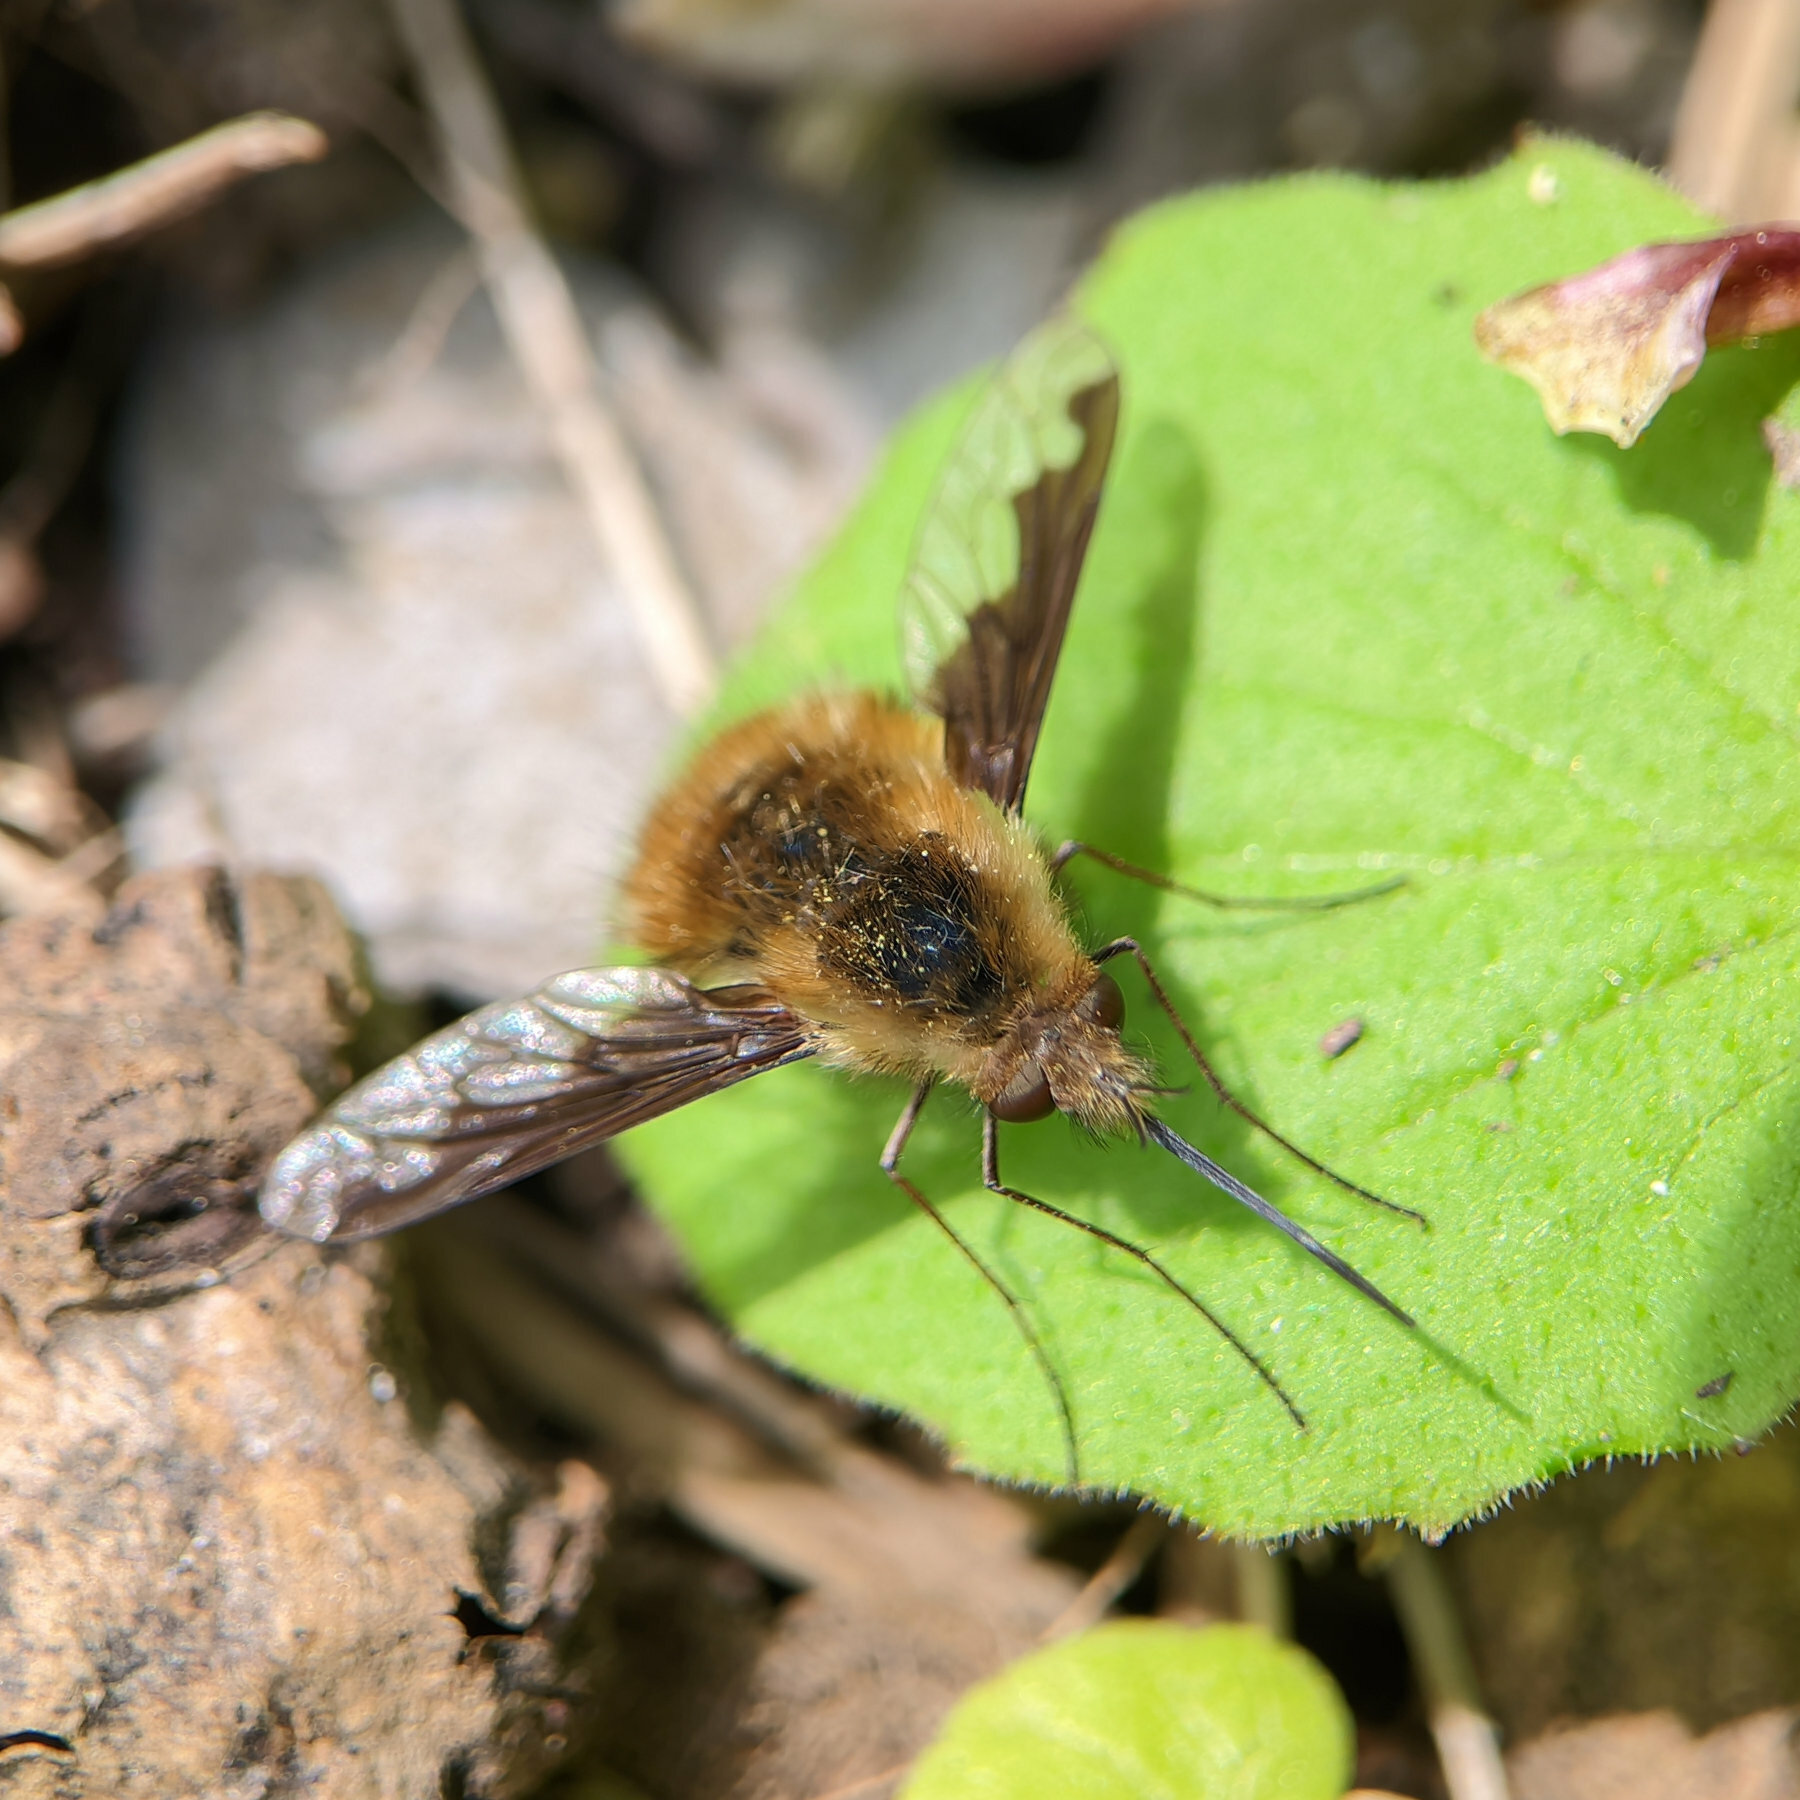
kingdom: Animalia
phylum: Arthropoda
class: Insecta
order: Diptera
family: Bombyliidae
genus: Bombylius
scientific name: Bombylius major
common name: Bee fly
